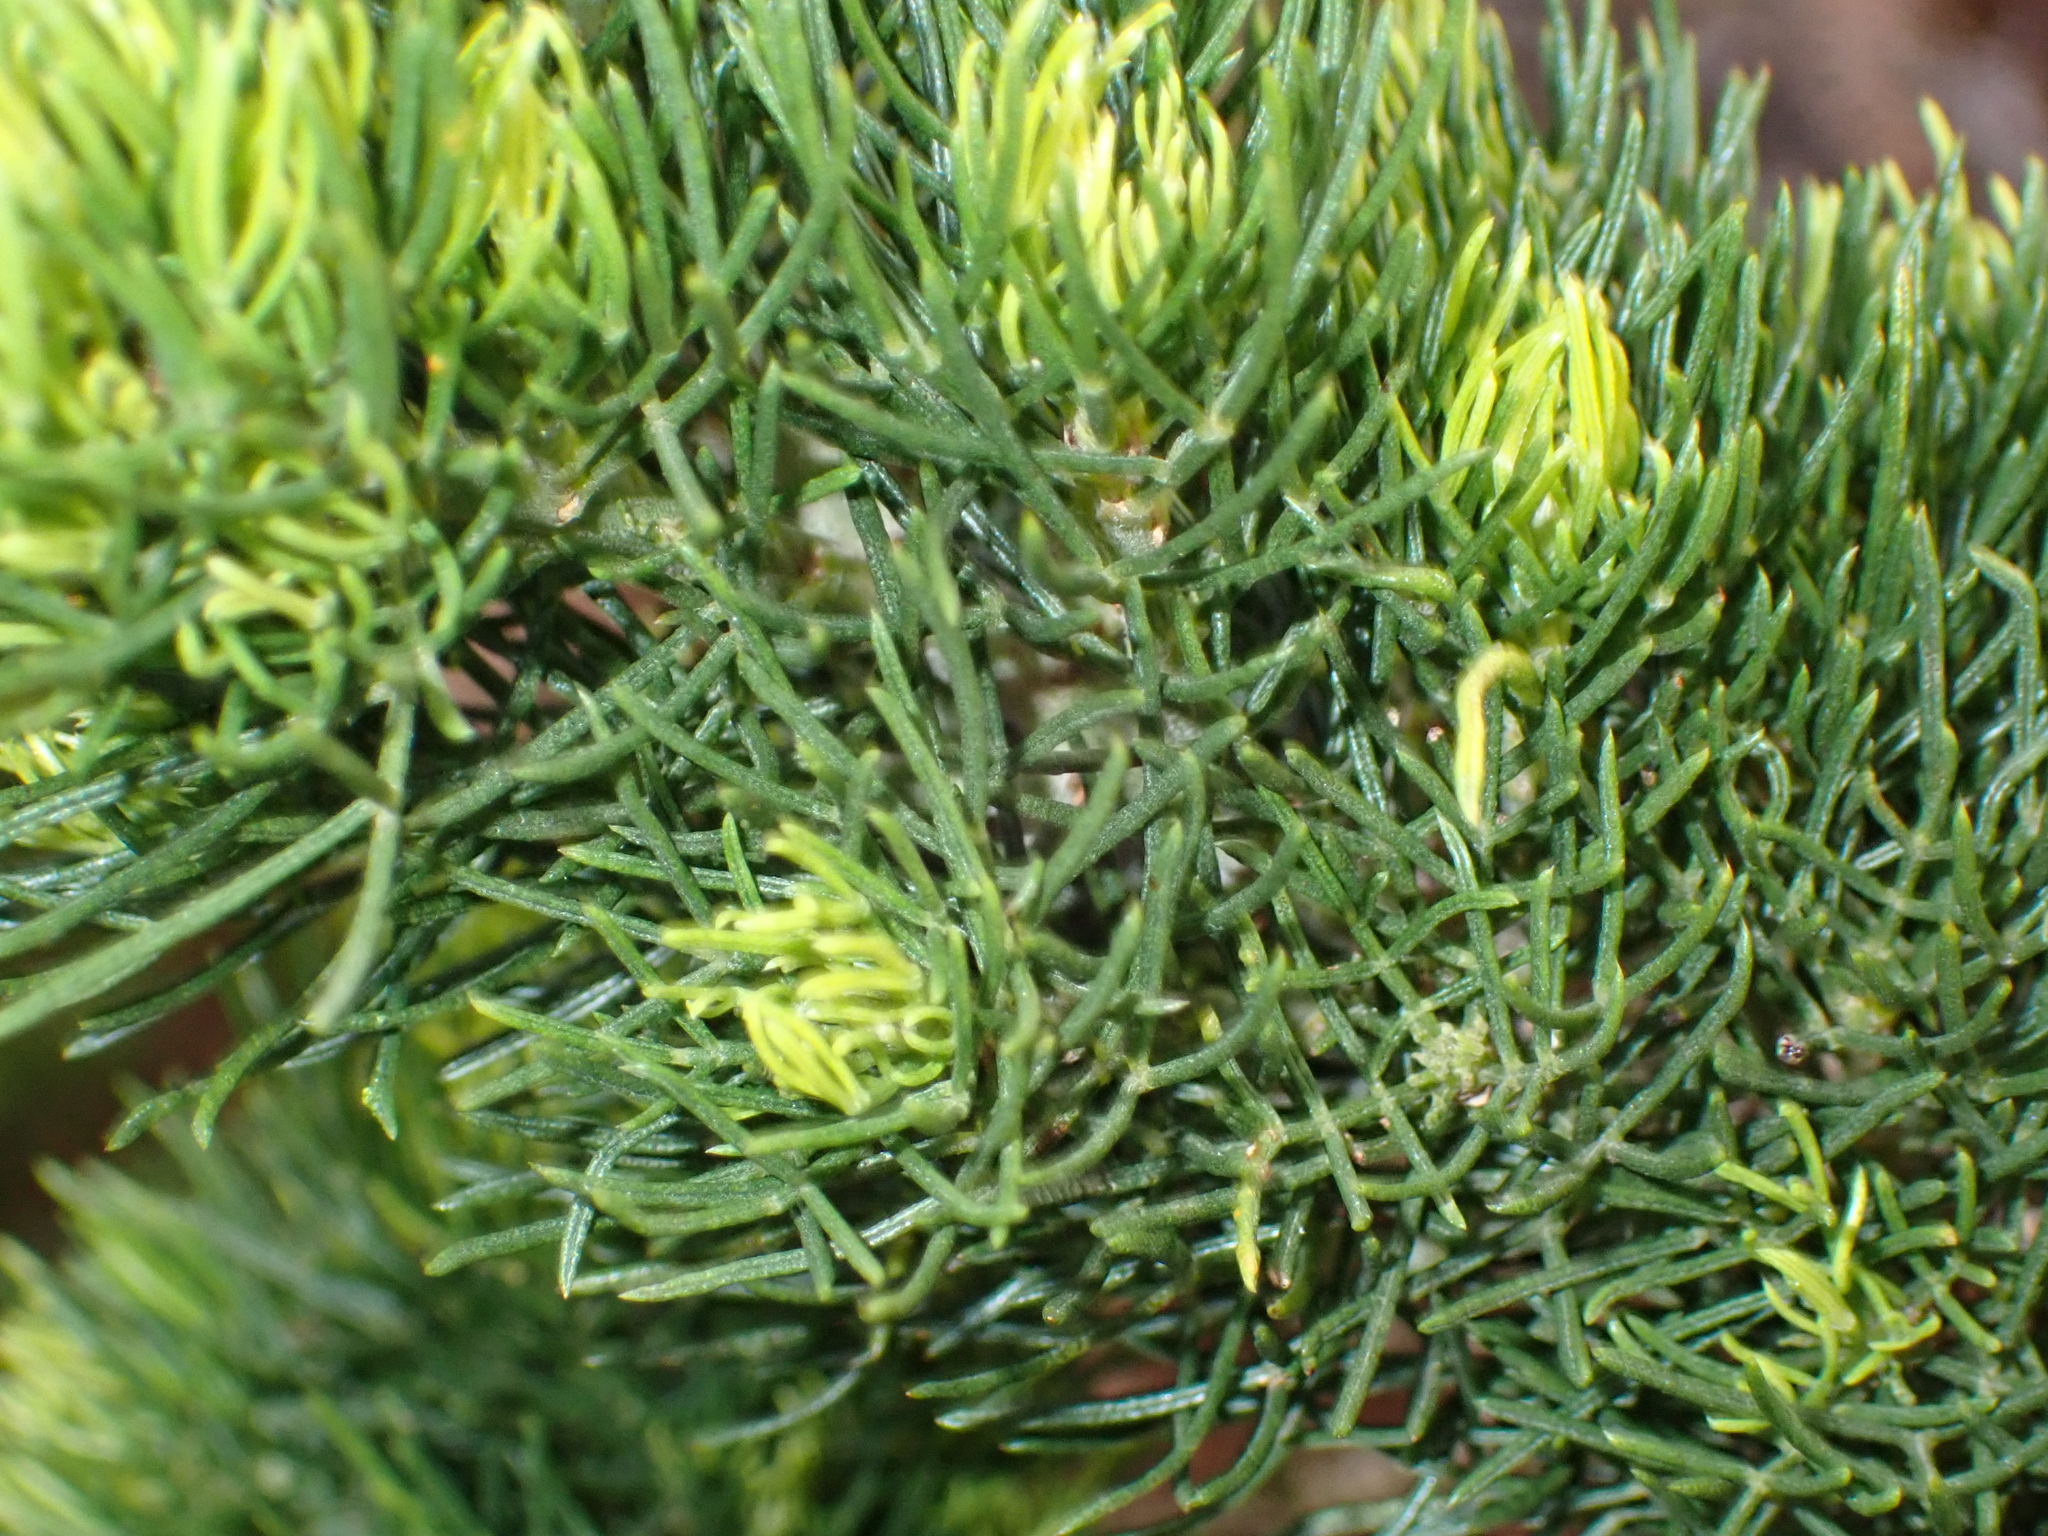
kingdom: Plantae
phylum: Tracheophyta
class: Magnoliopsida
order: Fabales
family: Fabaceae
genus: Psoralea
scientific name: Psoralea speciosa
